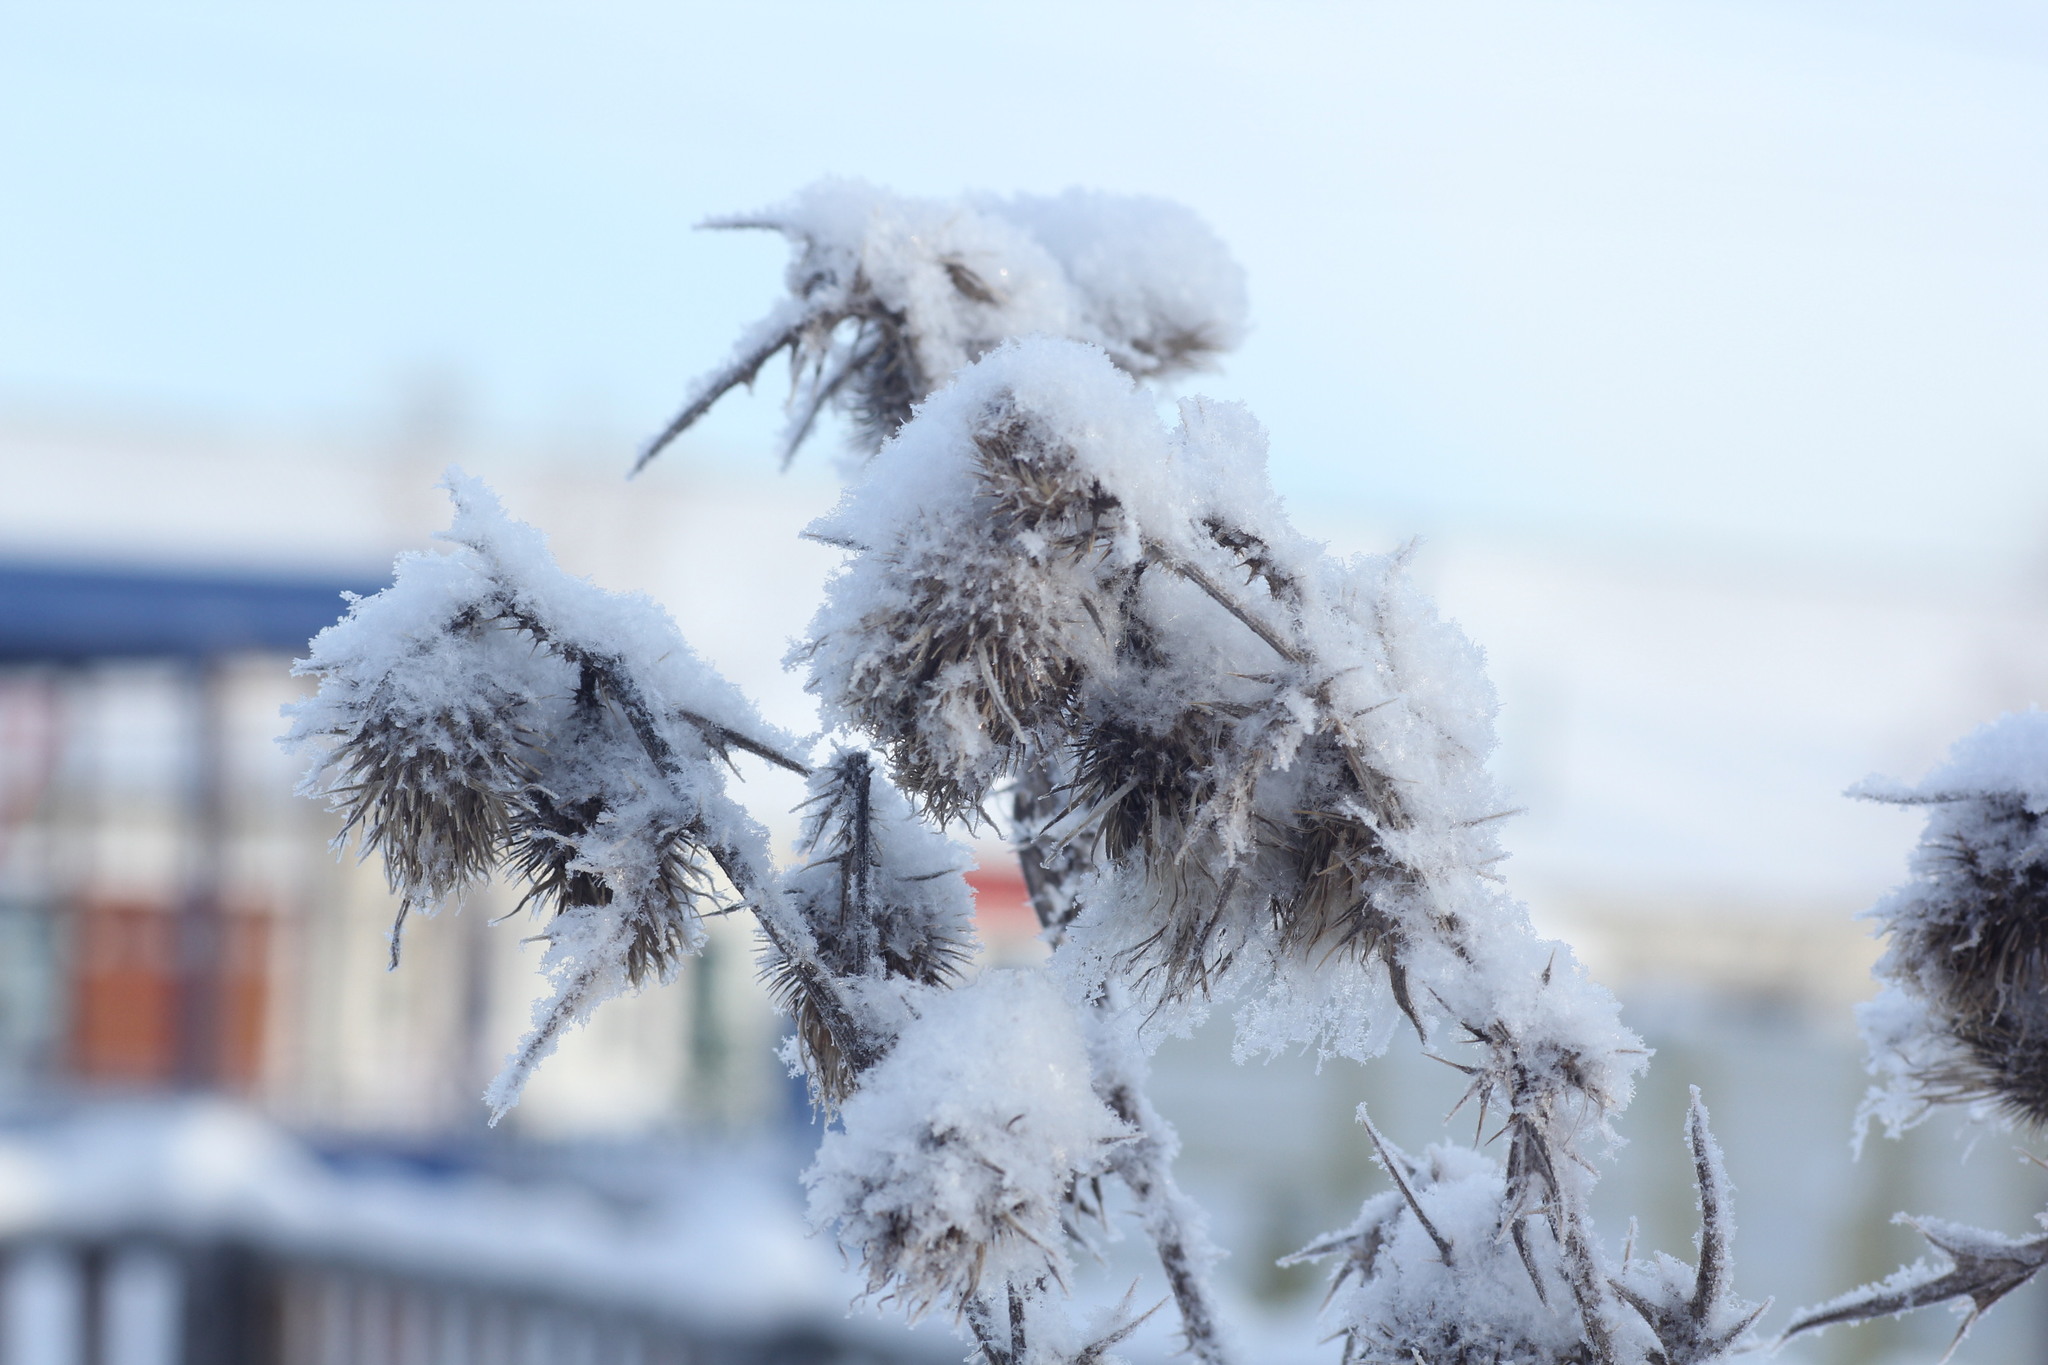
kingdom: Plantae
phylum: Tracheophyta
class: Magnoliopsida
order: Asterales
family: Asteraceae
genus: Cirsium
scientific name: Cirsium vulgare
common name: Bull thistle
